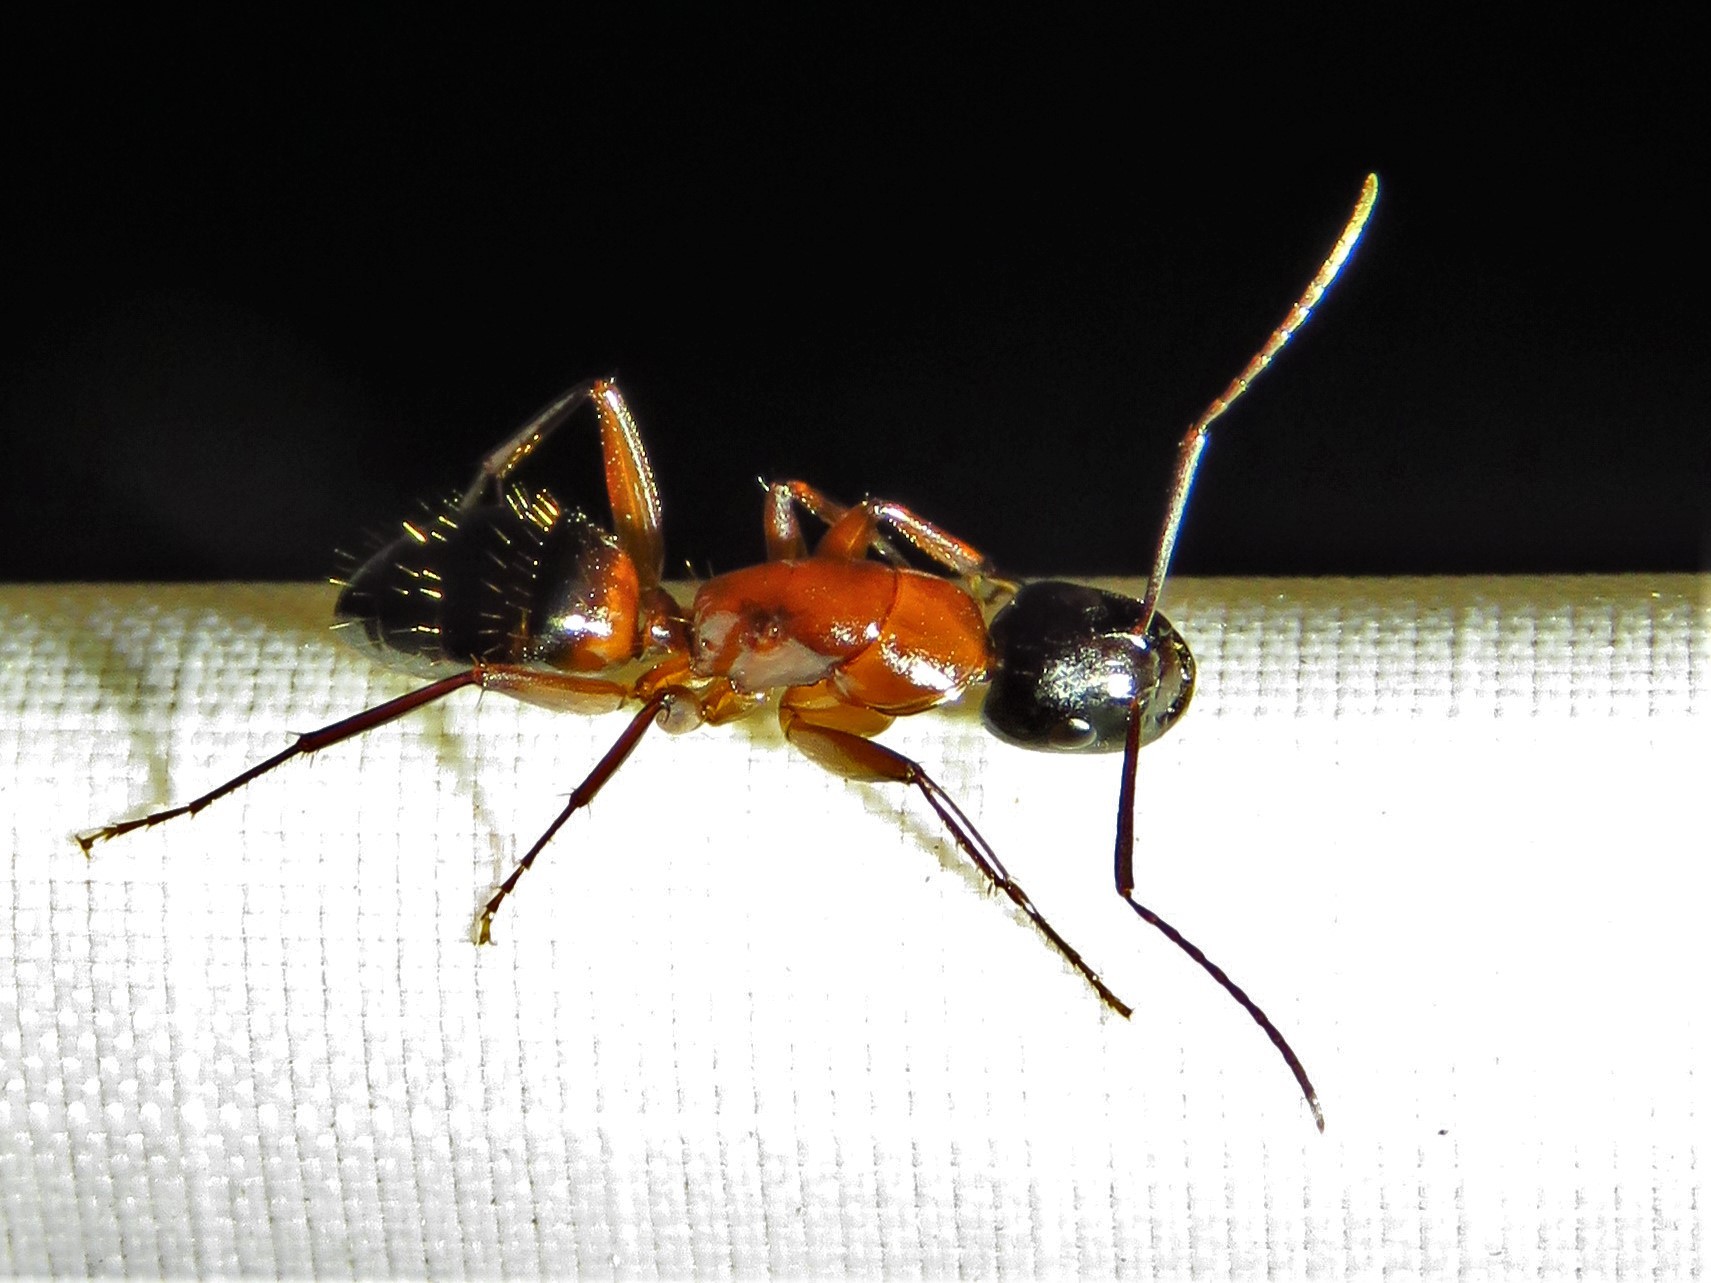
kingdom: Animalia
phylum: Arthropoda
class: Insecta
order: Hymenoptera
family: Formicidae
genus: Camponotus
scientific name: Camponotus texanus
